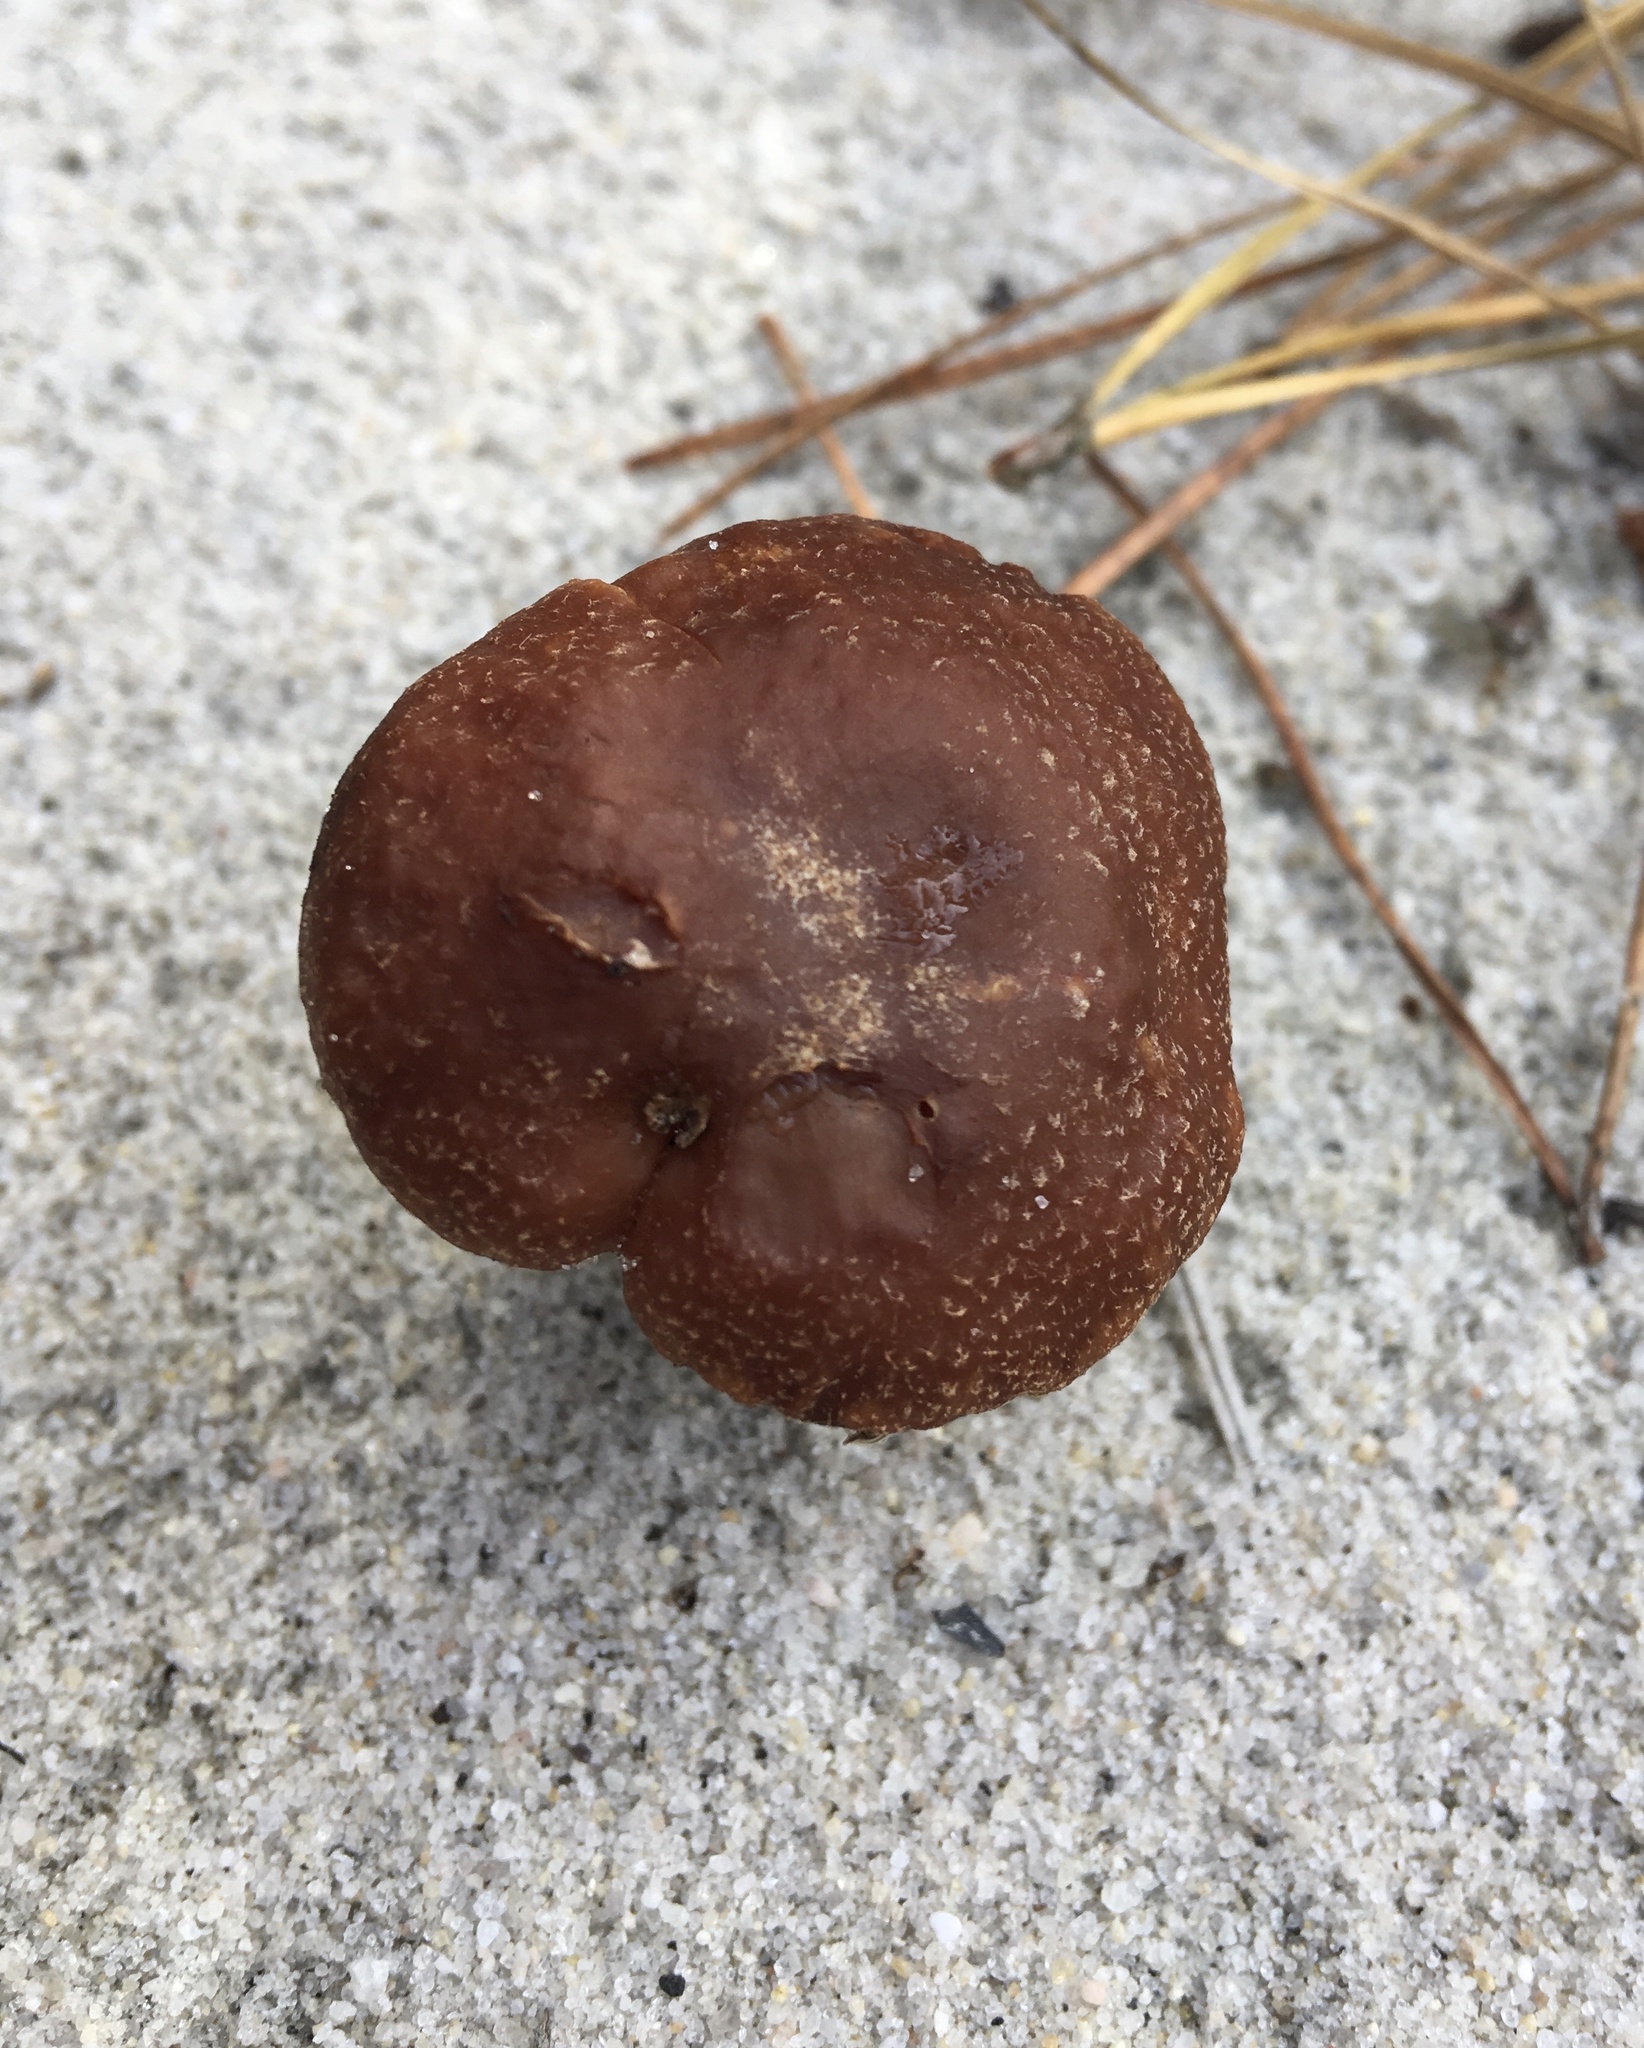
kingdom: Fungi
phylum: Basidiomycota
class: Agaricomycetes
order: Agaricales
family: Hydnangiaceae
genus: Laccaria
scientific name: Laccaria trullissata
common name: Sandy laccaria
